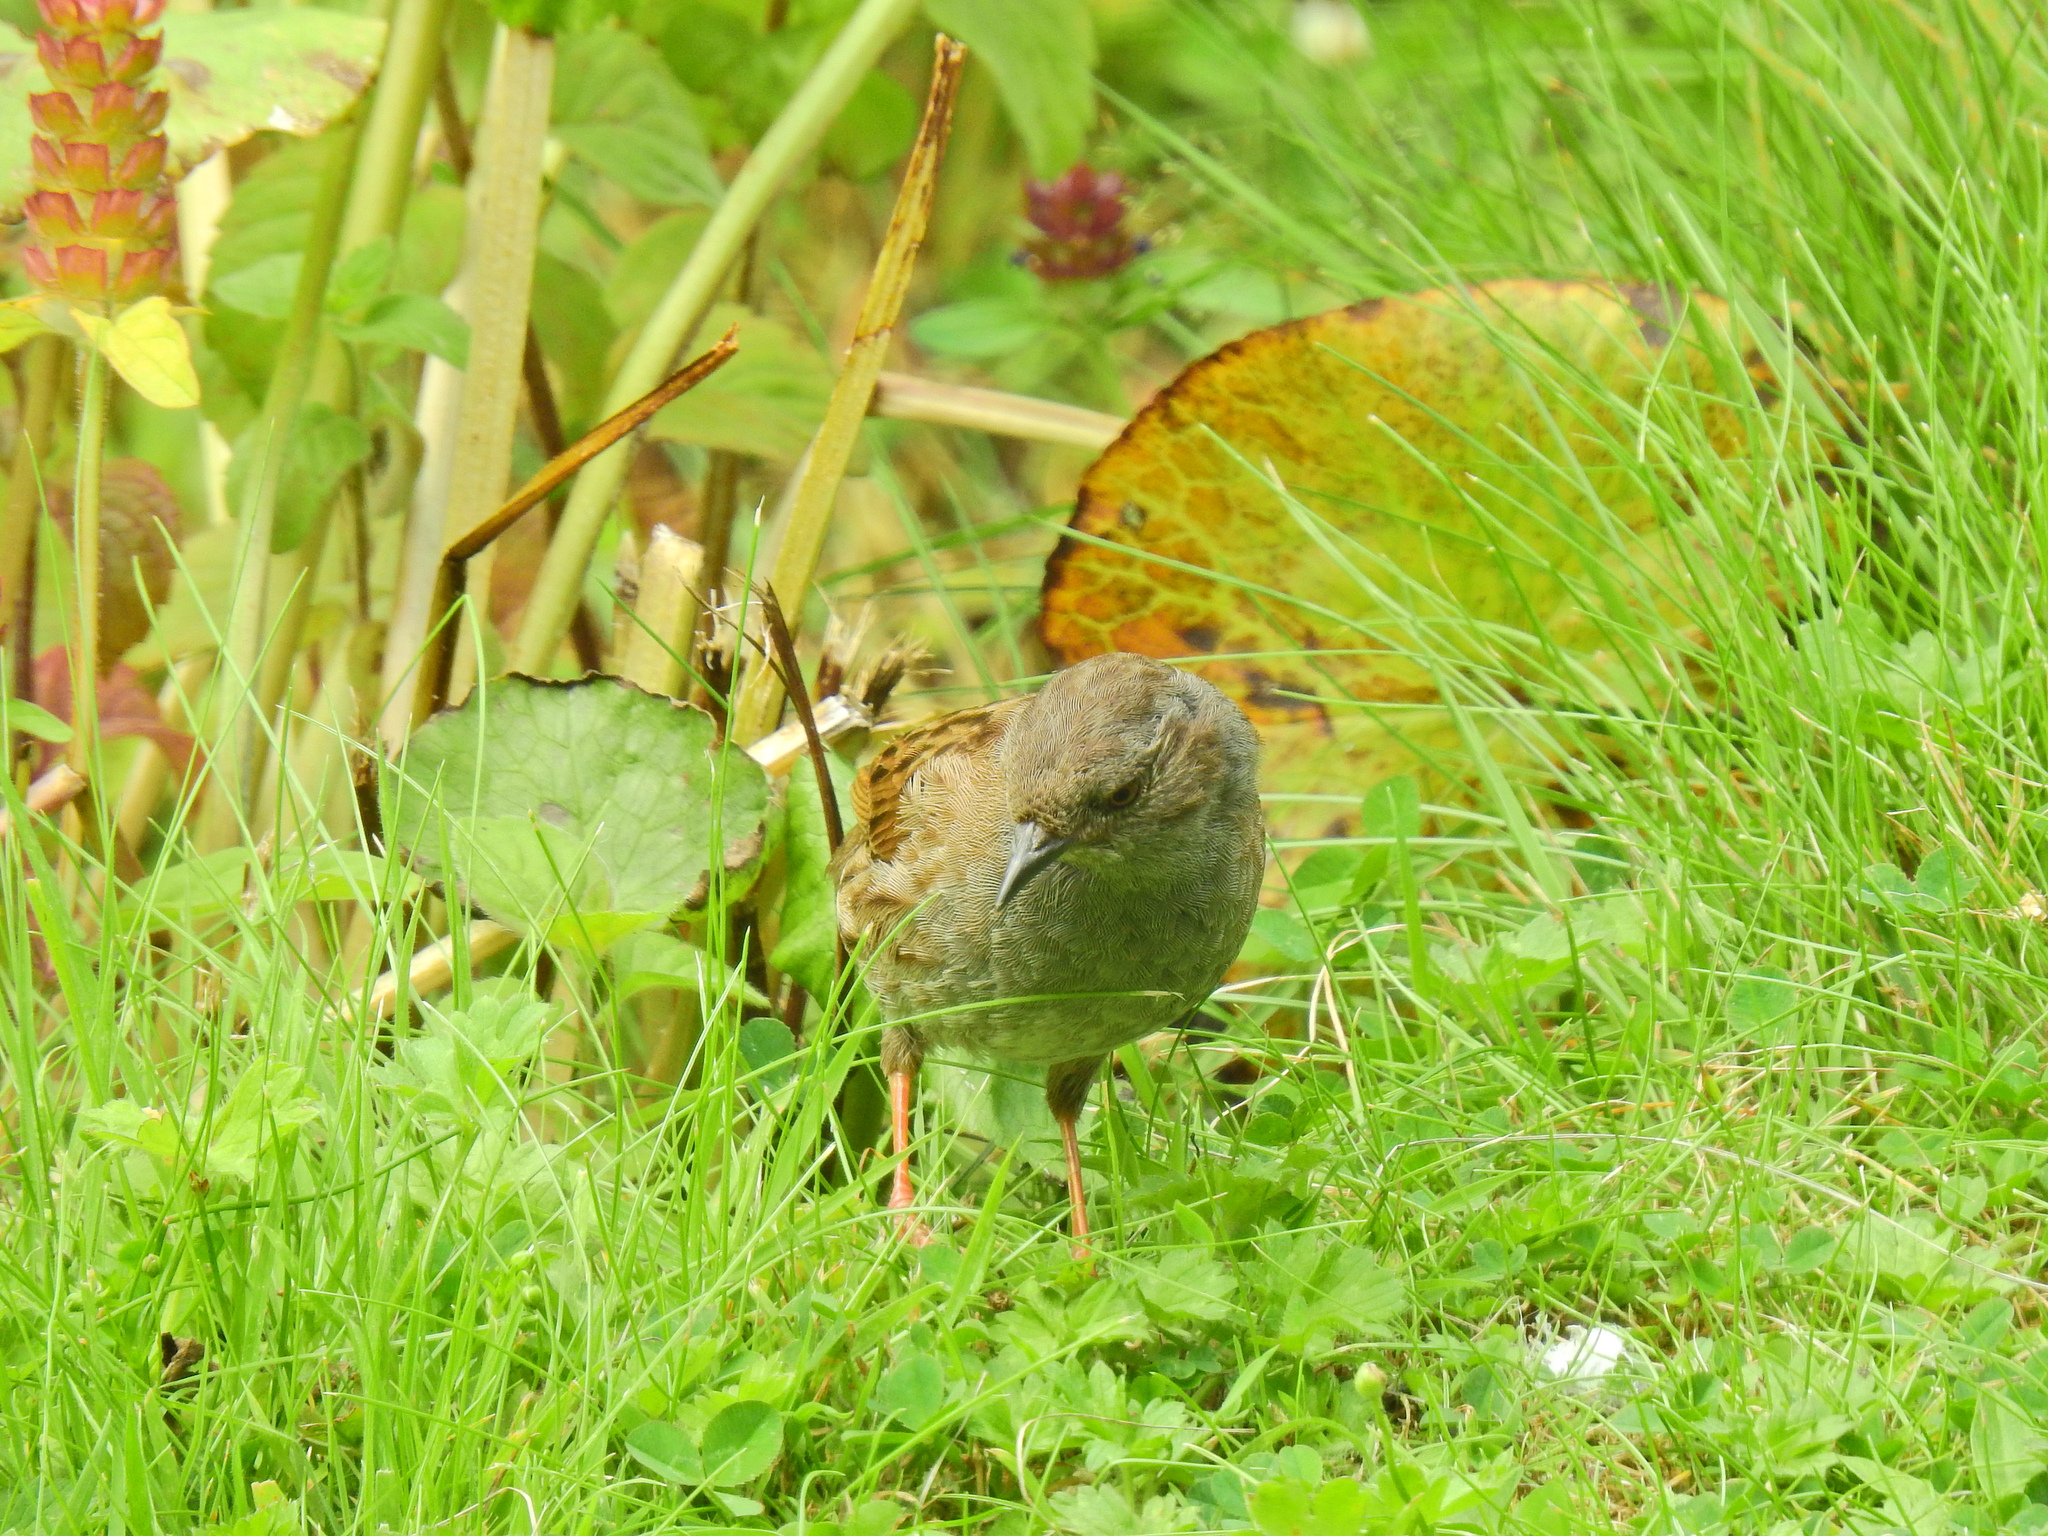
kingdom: Animalia
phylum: Chordata
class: Aves
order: Passeriformes
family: Prunellidae
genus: Prunella
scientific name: Prunella modularis
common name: Dunnock
